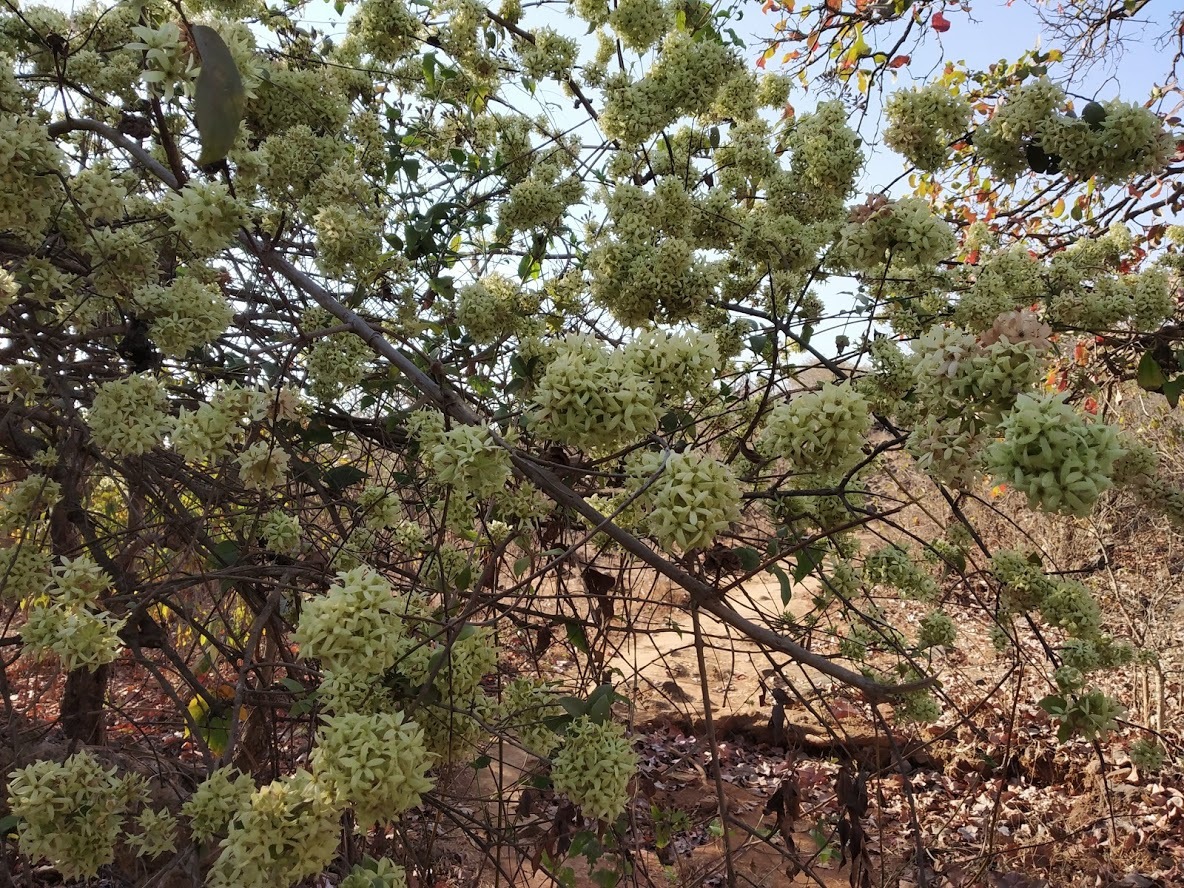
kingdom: Plantae
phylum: Tracheophyta
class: Magnoliopsida
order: Myrtales
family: Combretaceae
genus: Getonia
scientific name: Getonia floribunda
